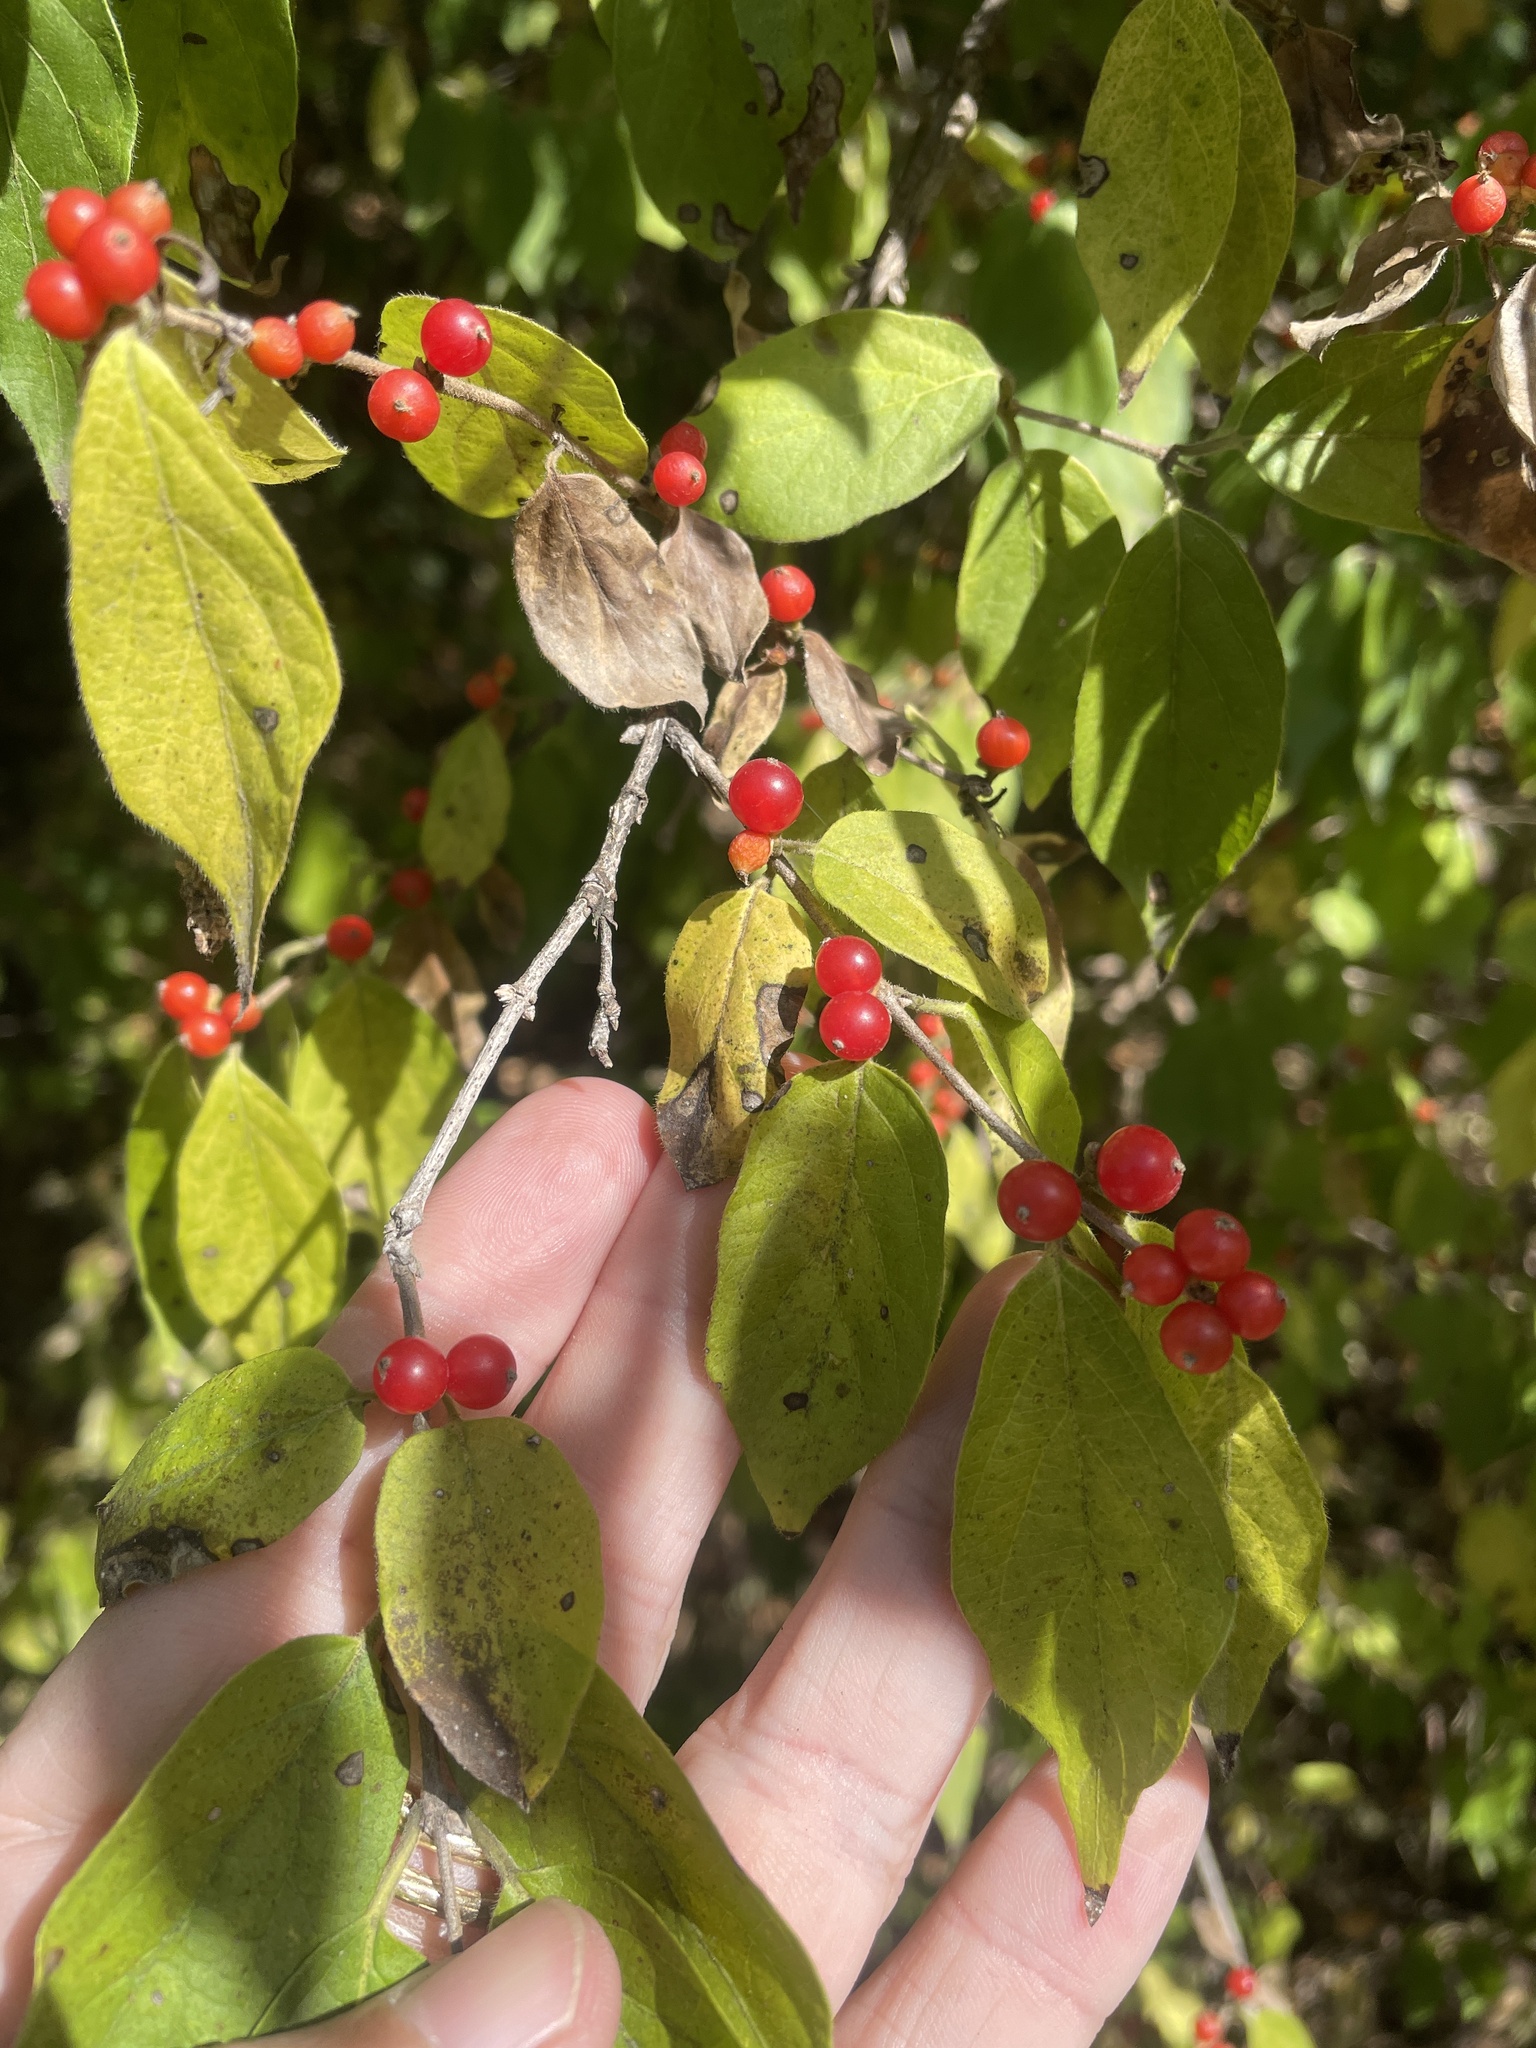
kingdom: Plantae
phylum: Tracheophyta
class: Magnoliopsida
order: Dipsacales
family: Caprifoliaceae
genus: Lonicera
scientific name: Lonicera maackii
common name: Amur honeysuckle
